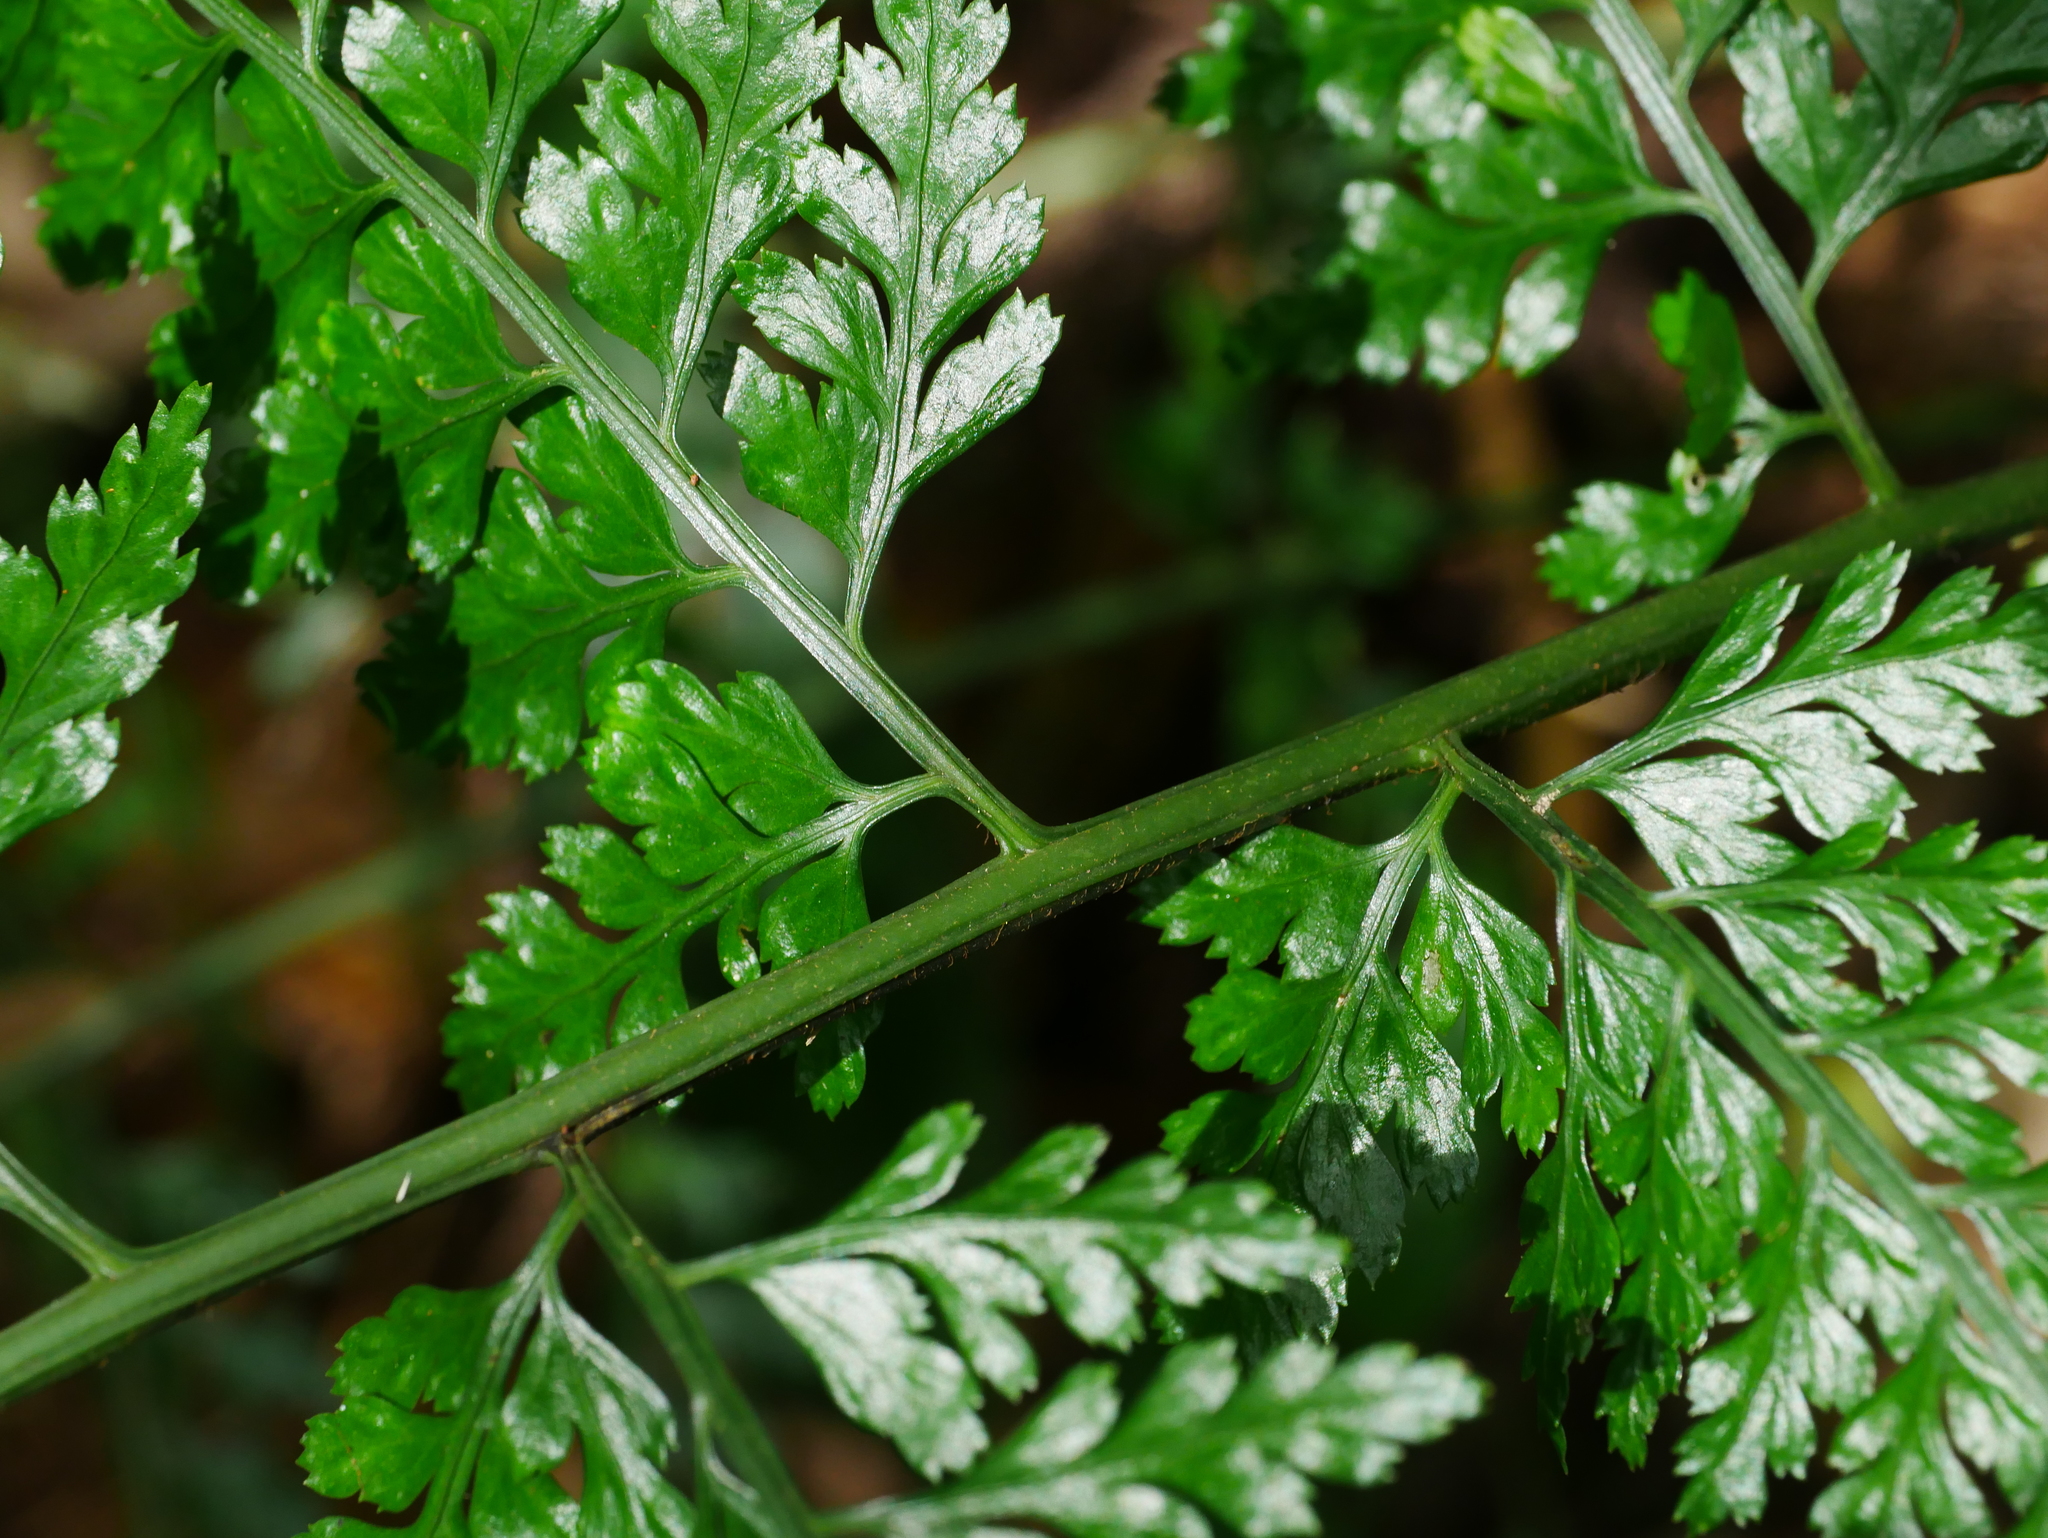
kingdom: Plantae
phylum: Tracheophyta
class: Polypodiopsida
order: Polypodiales
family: Aspleniaceae
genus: Asplenium
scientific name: Asplenium bullatum
